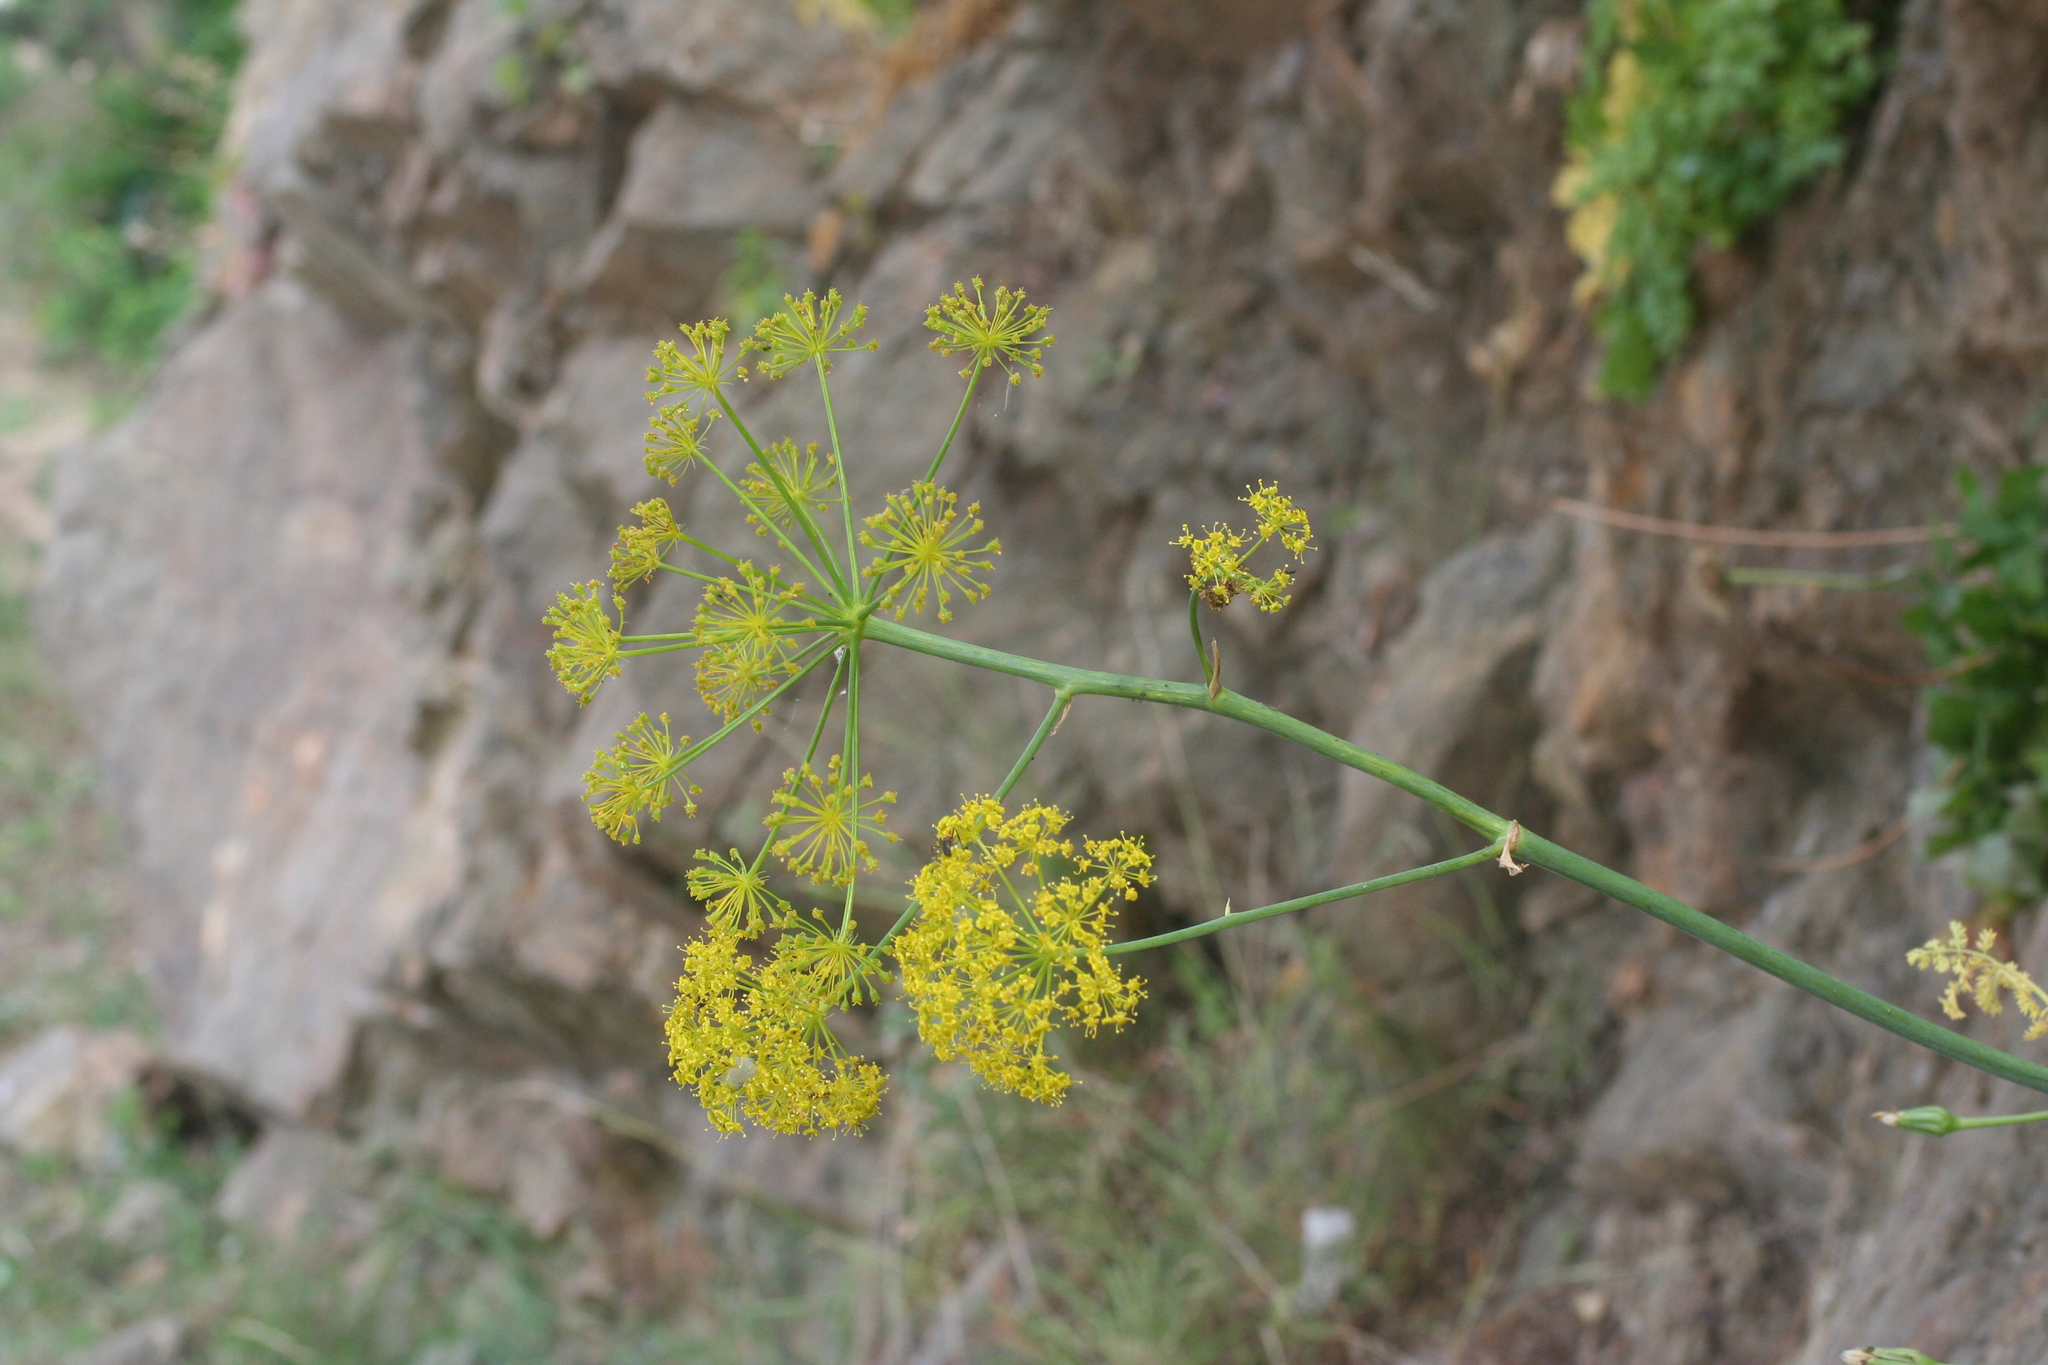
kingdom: Plantae
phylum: Tracheophyta
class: Magnoliopsida
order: Apiales
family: Apiaceae
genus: Thapsia
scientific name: Thapsia foetida
